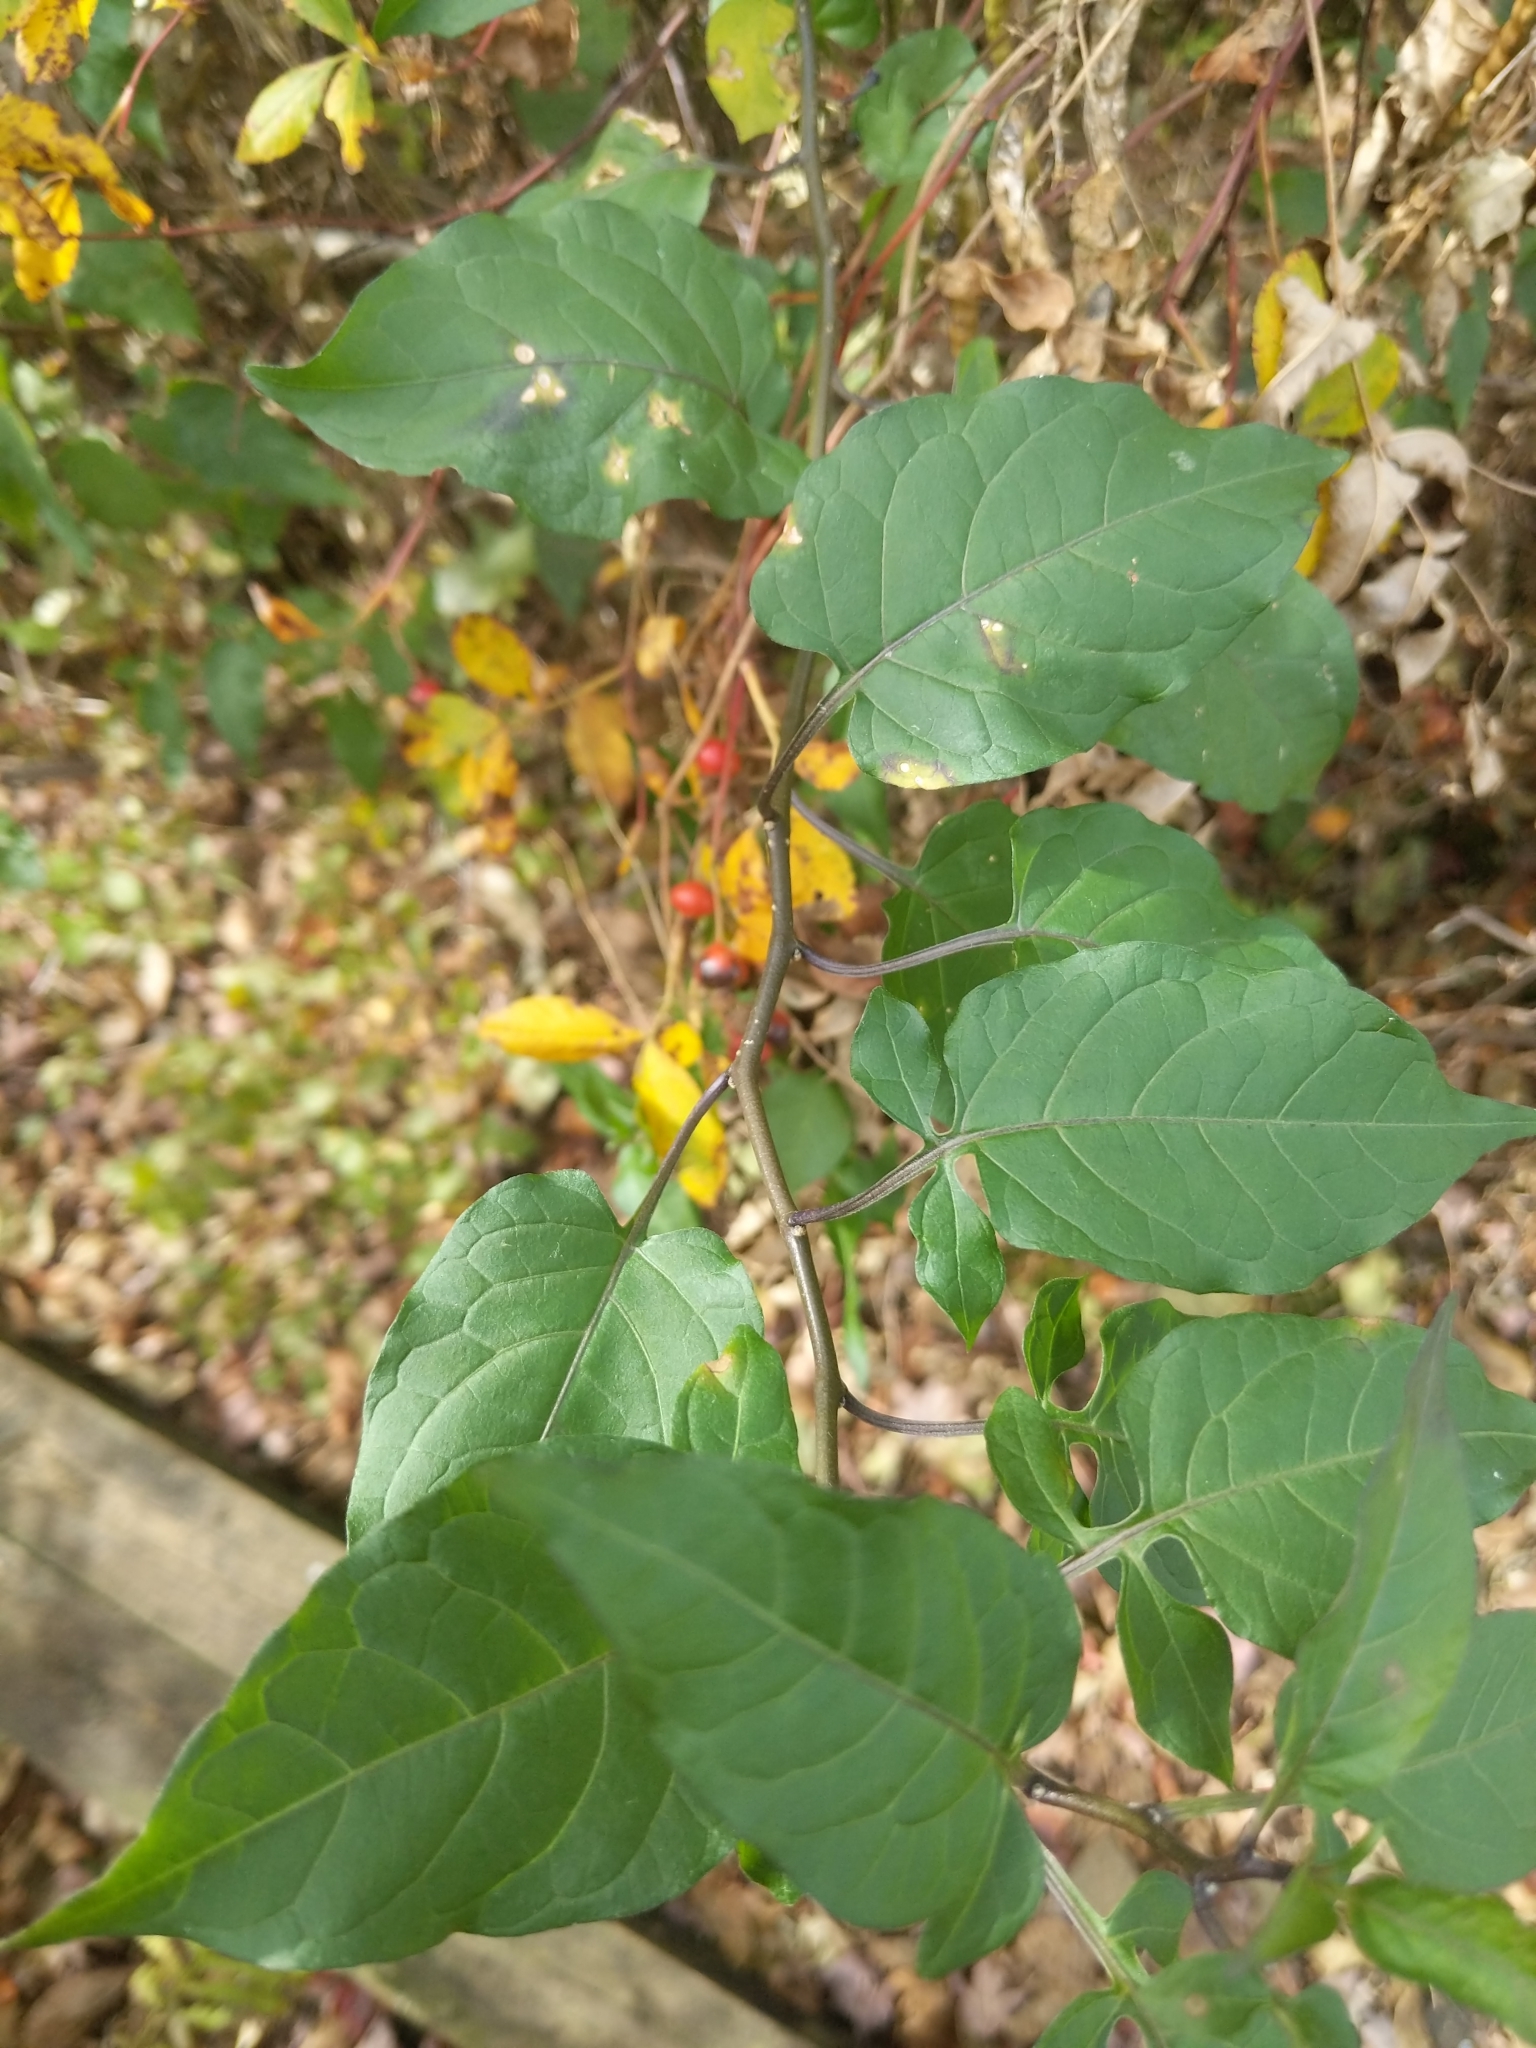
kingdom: Plantae
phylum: Tracheophyta
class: Magnoliopsida
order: Solanales
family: Solanaceae
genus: Solanum
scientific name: Solanum dulcamara
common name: Climbing nightshade
